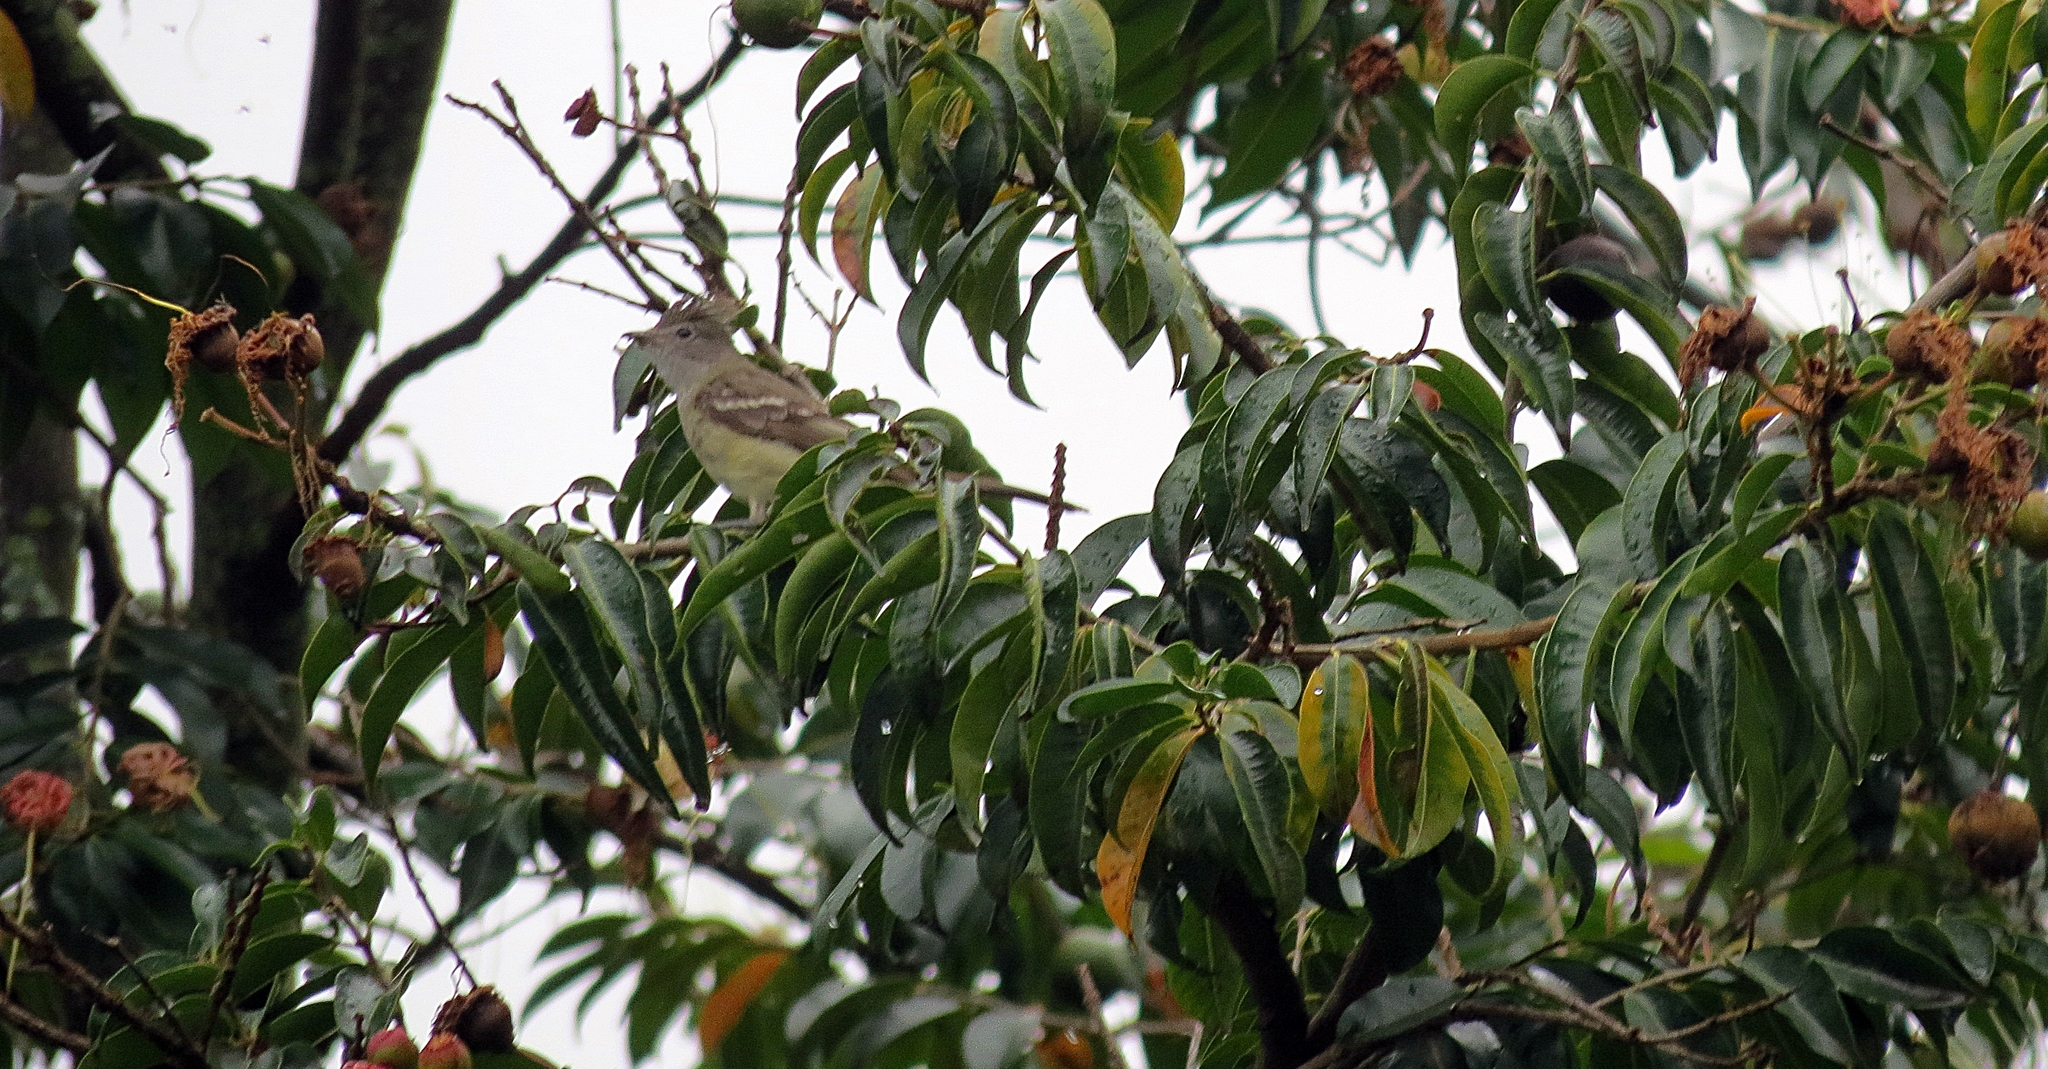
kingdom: Animalia
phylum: Chordata
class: Aves
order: Passeriformes
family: Tyrannidae
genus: Elaenia
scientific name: Elaenia flavogaster
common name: Yellow-bellied elaenia
